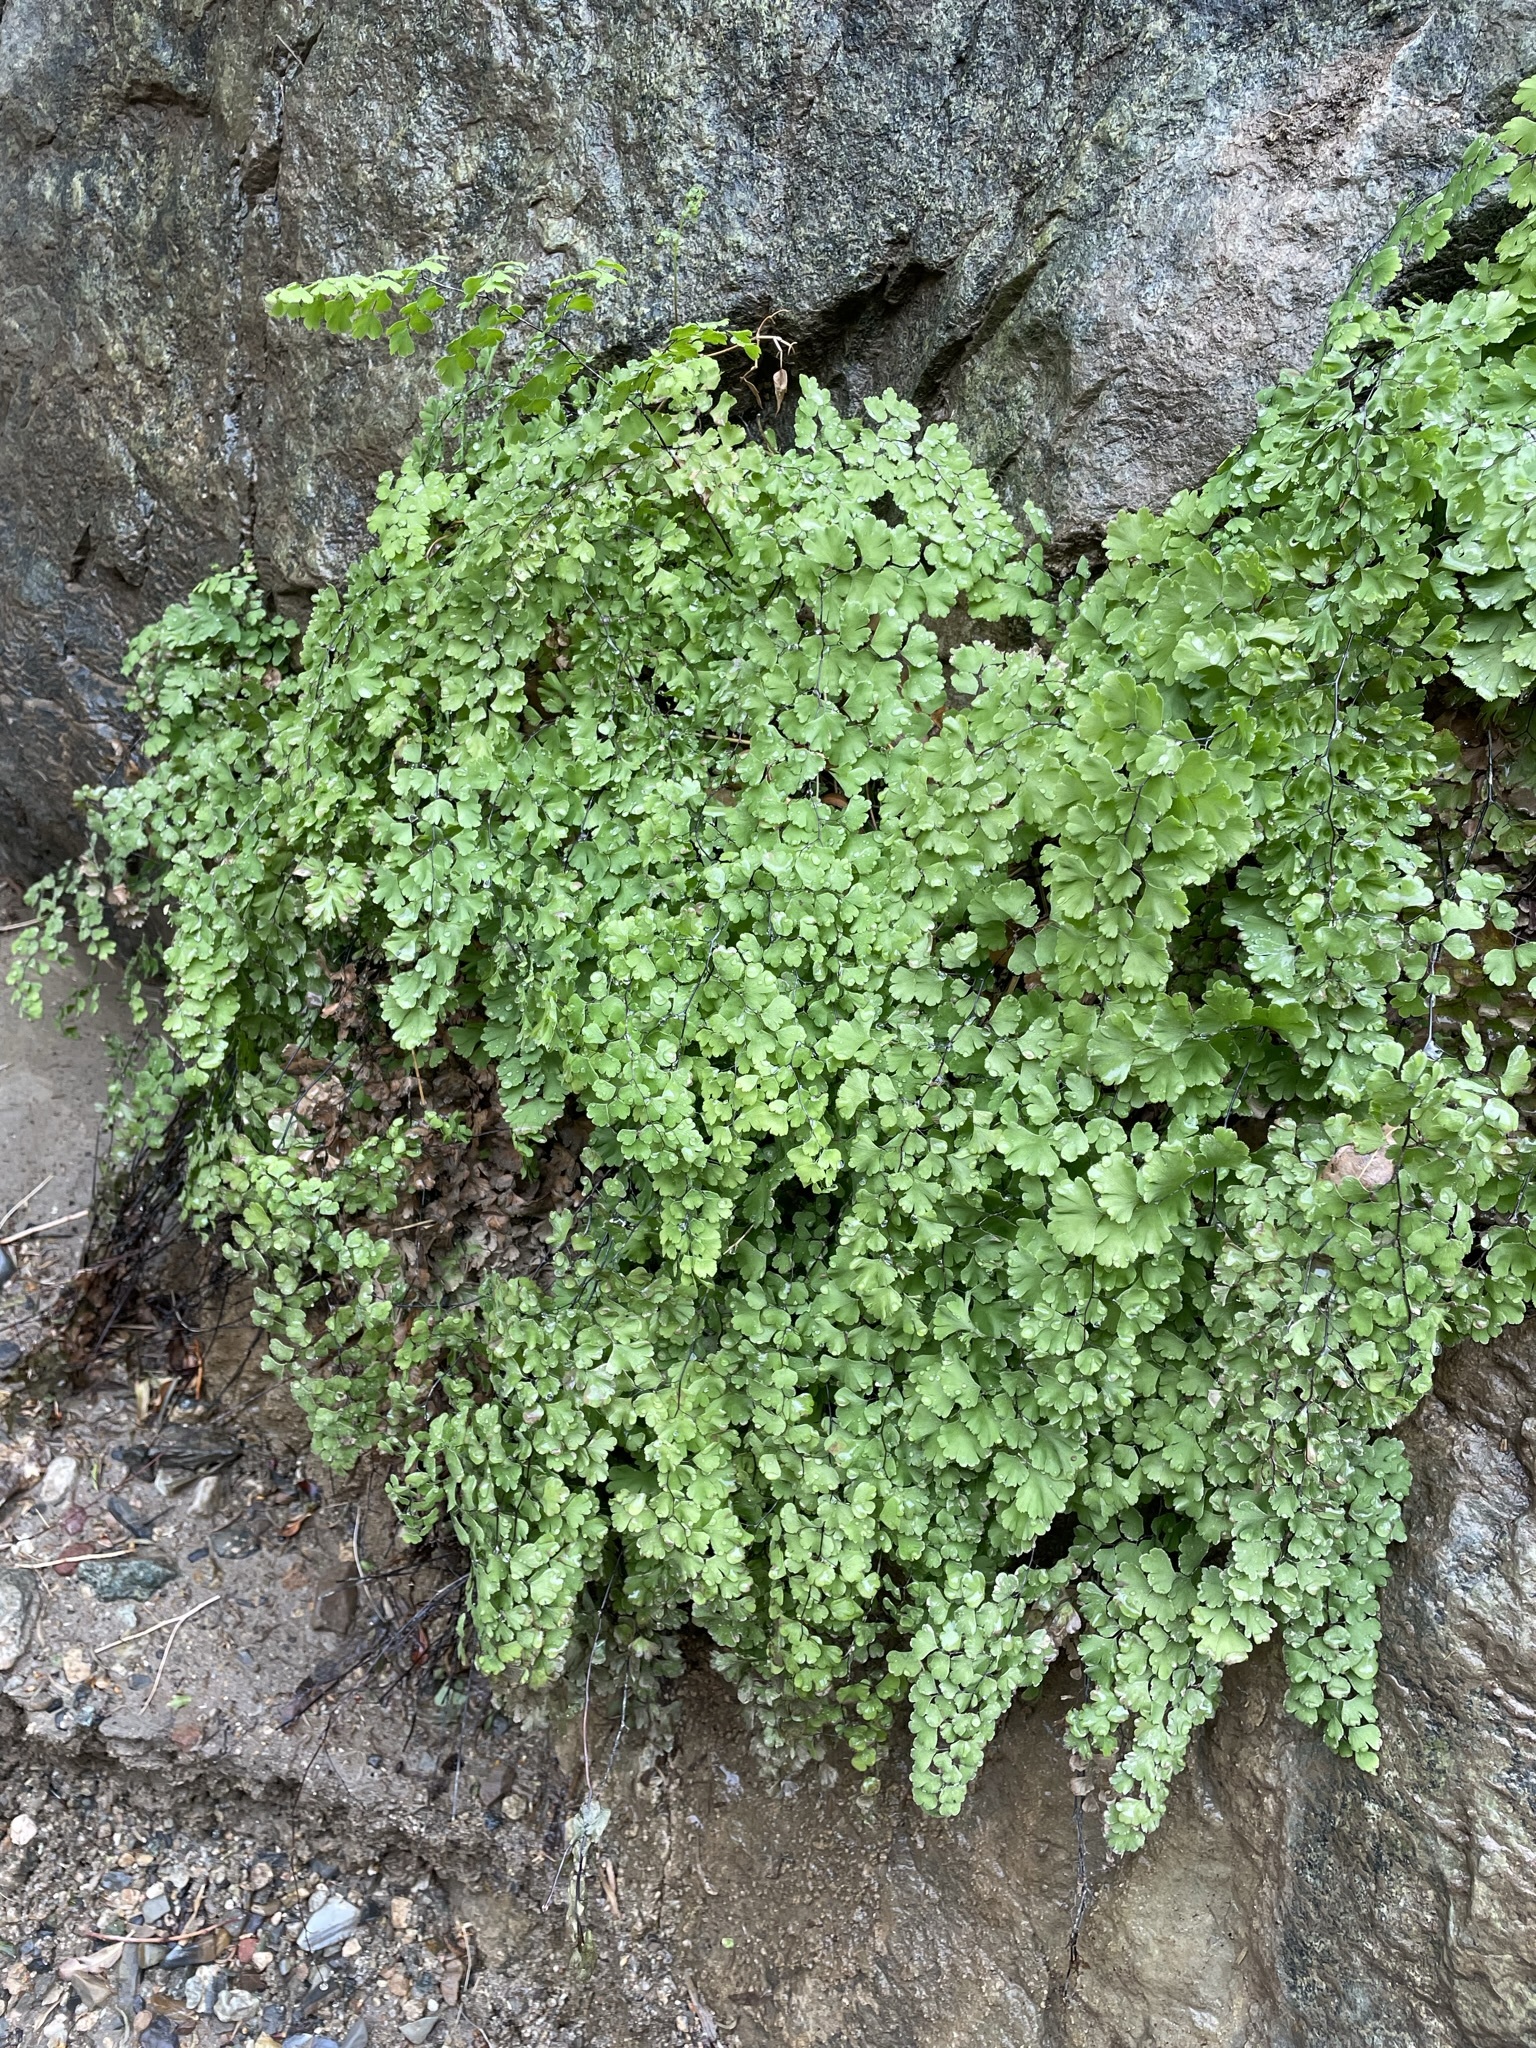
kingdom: Plantae
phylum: Tracheophyta
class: Polypodiopsida
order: Polypodiales
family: Pteridaceae
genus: Adiantum
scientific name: Adiantum capillus-veneris
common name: Maidenhair fern
